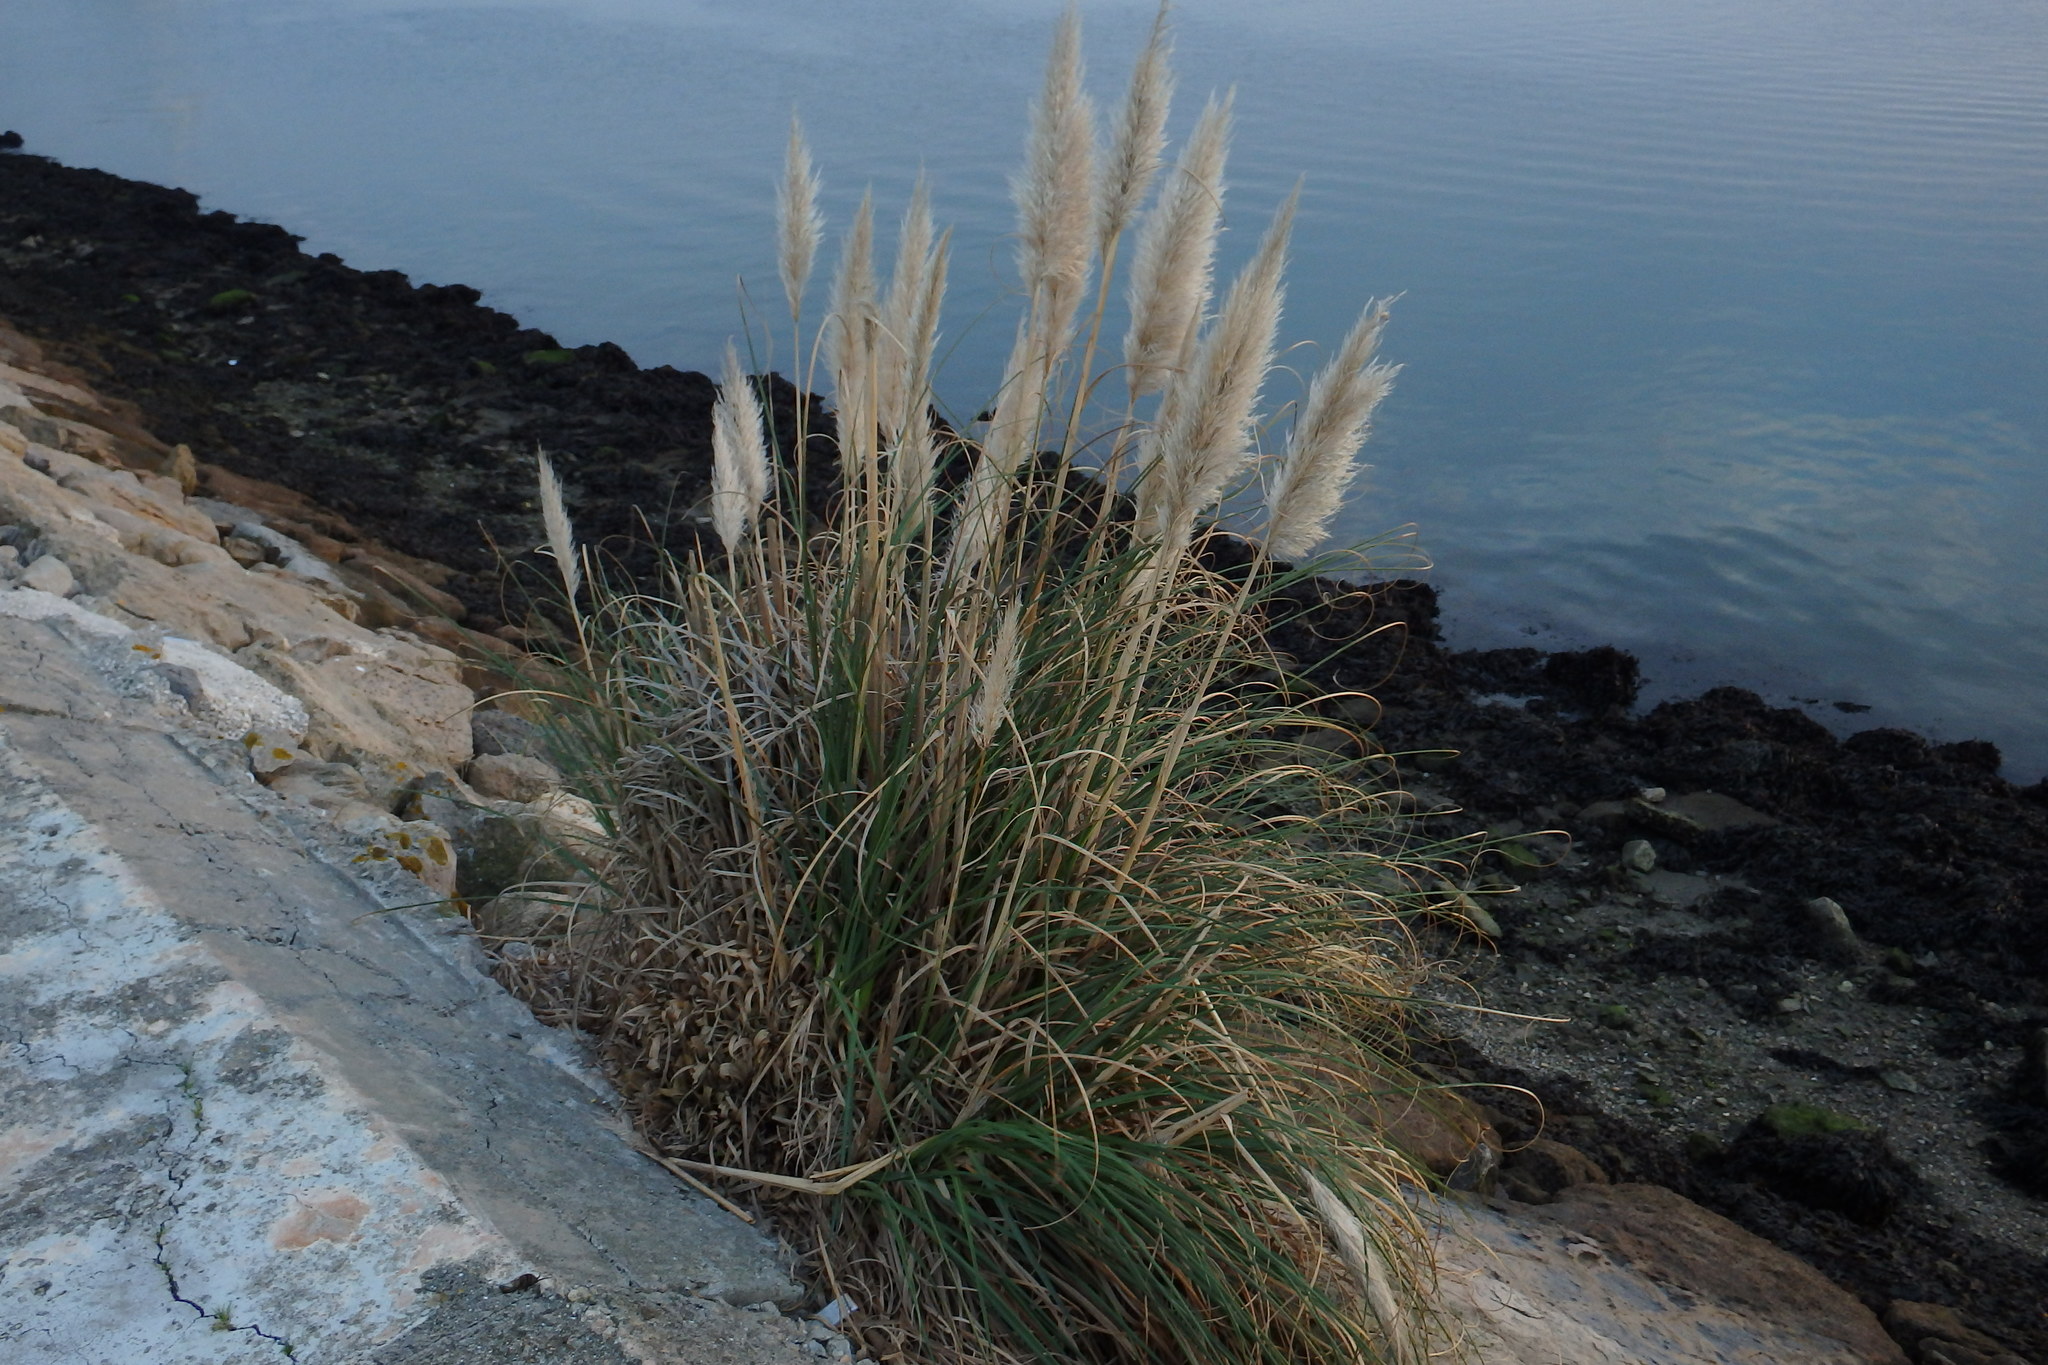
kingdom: Plantae
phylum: Tracheophyta
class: Liliopsida
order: Poales
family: Poaceae
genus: Cortaderia
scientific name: Cortaderia selloana
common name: Uruguayan pampas grass
